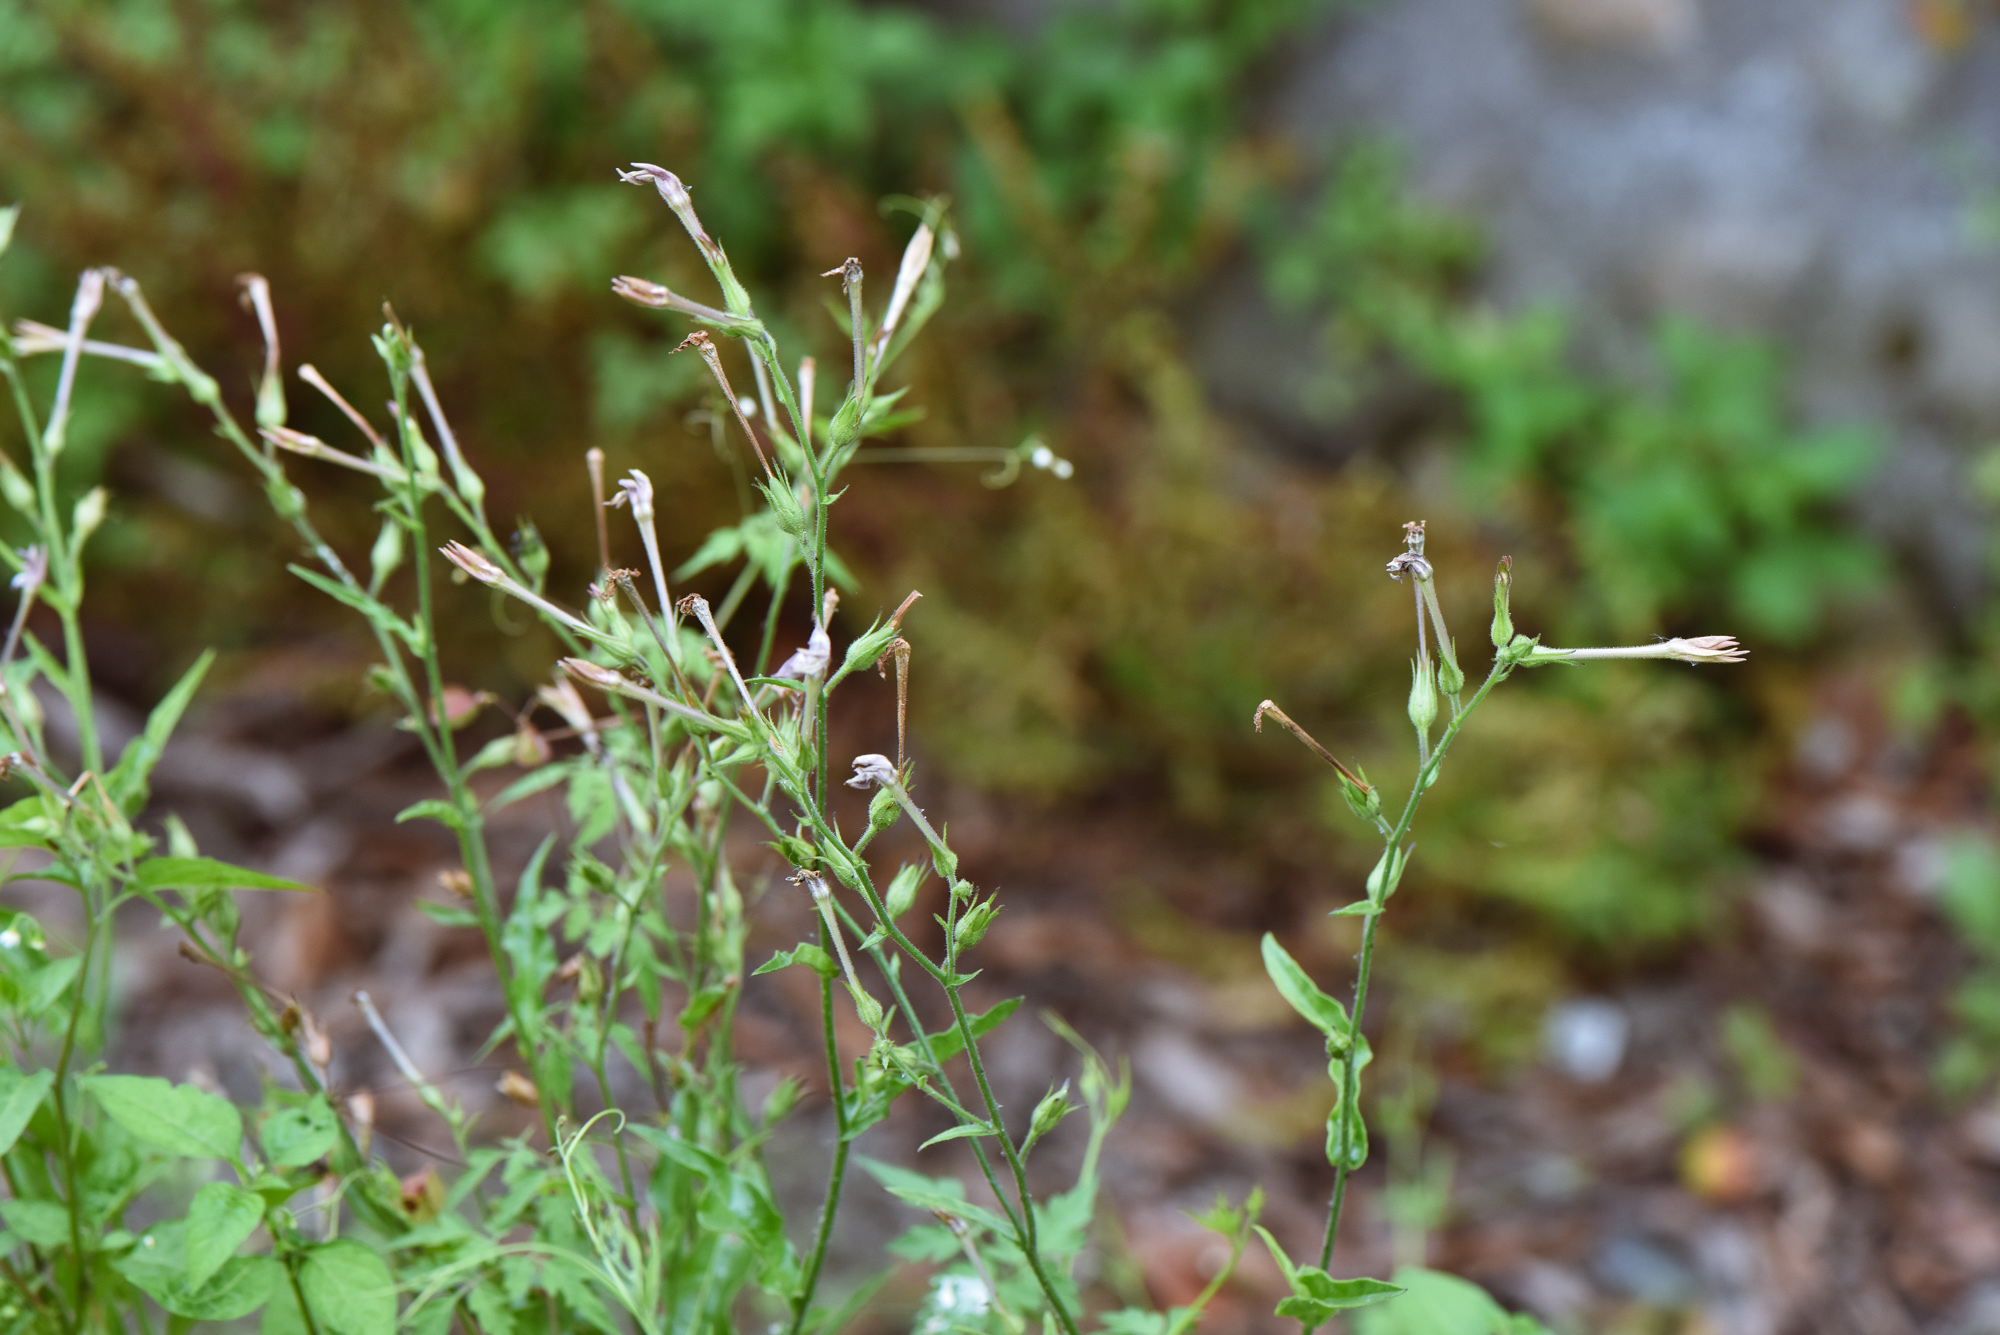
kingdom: Plantae
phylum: Tracheophyta
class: Magnoliopsida
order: Solanales
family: Solanaceae
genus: Nicotiana
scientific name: Nicotiana plumbaginifolia
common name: Tex-mex tobacco
